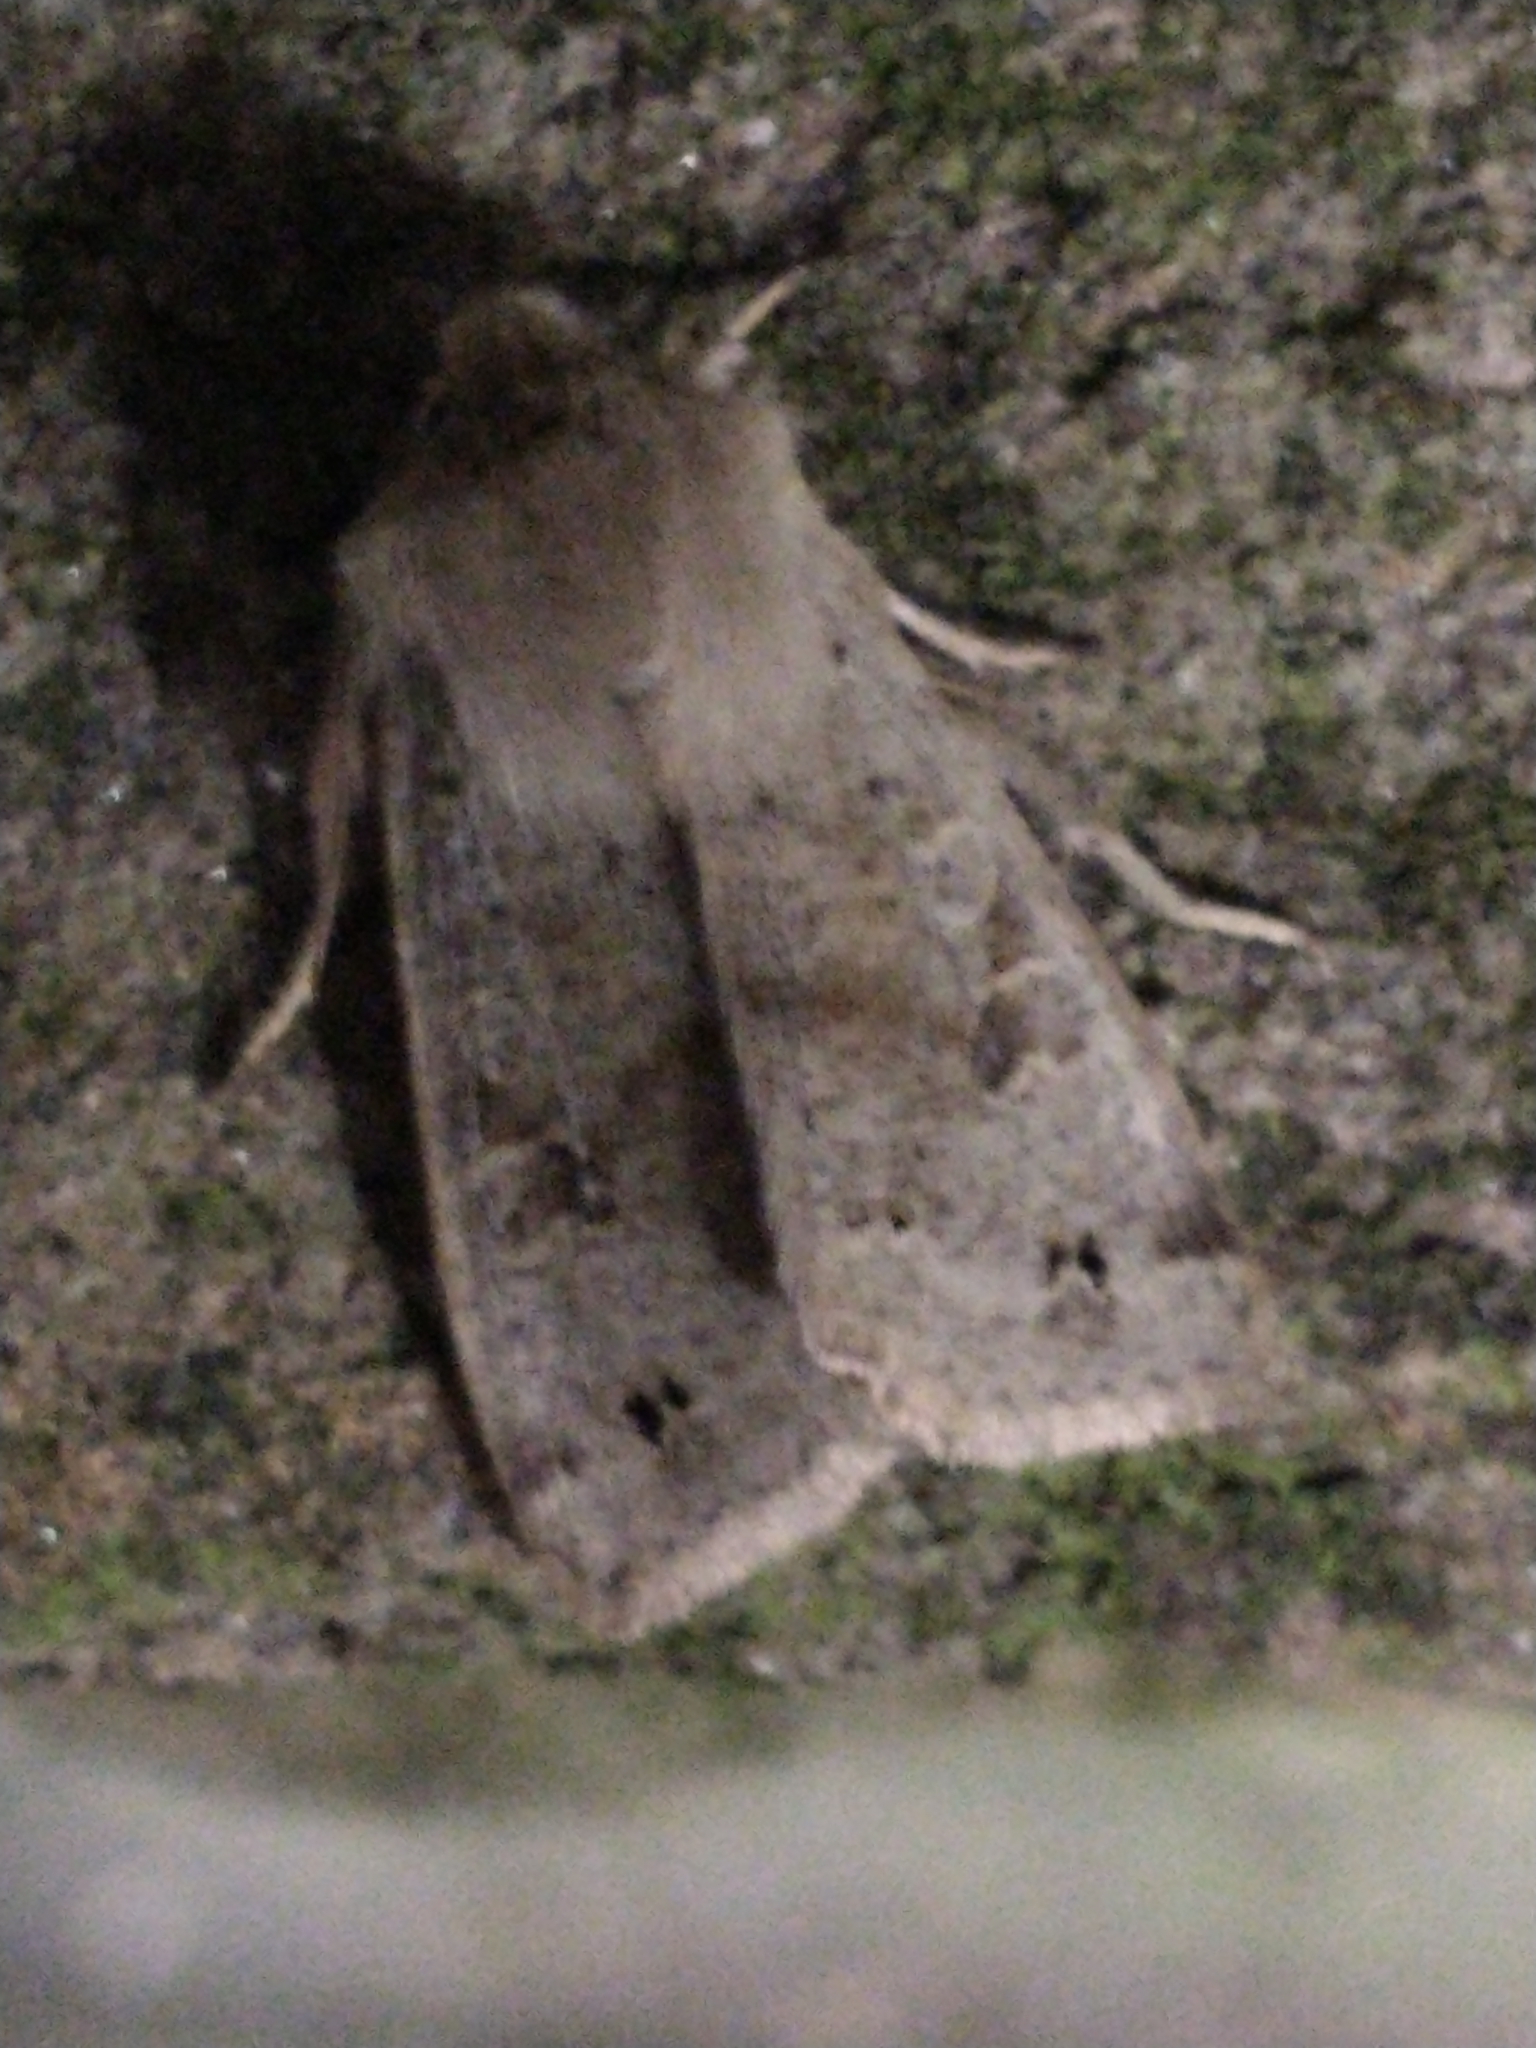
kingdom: Animalia
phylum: Arthropoda
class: Insecta
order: Lepidoptera
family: Noctuidae
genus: Anorthoa
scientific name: Anorthoa munda
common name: Twin-spotted quaker
